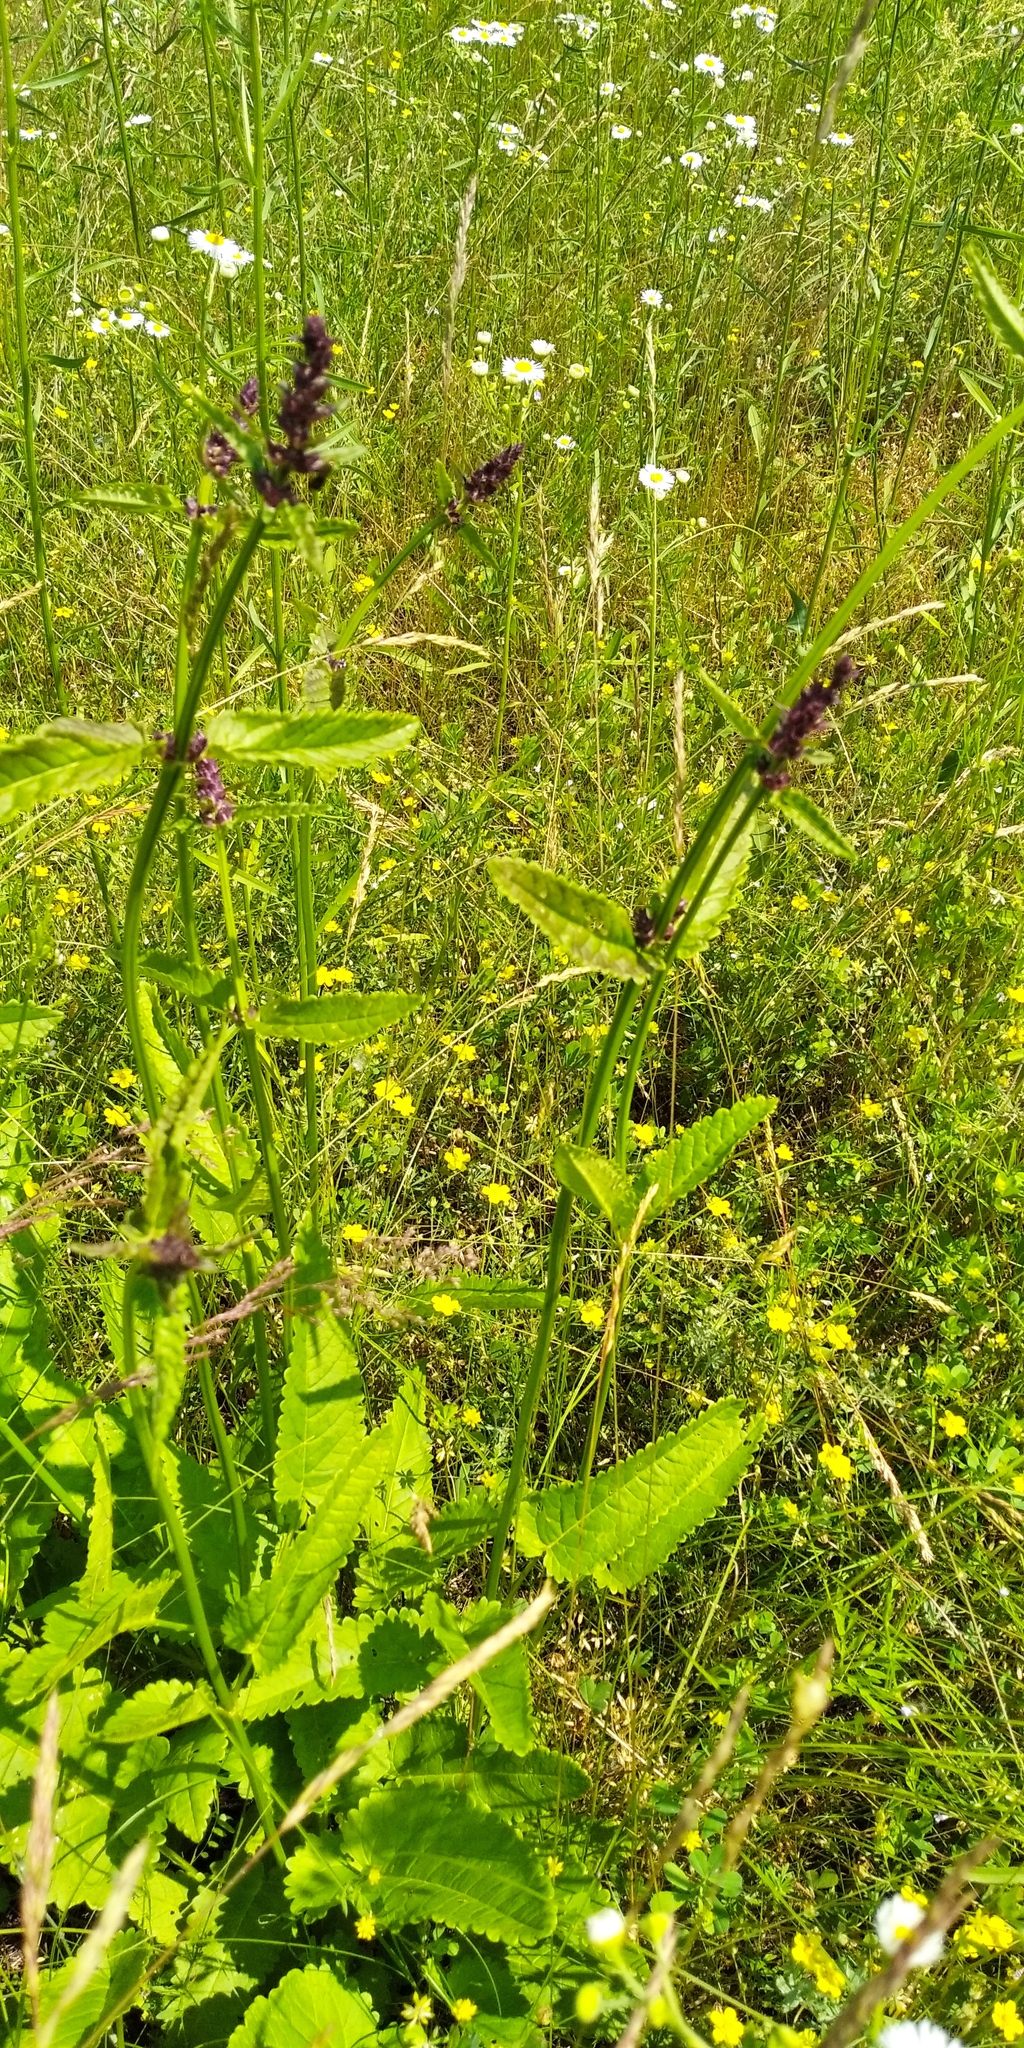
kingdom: Plantae
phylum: Tracheophyta
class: Magnoliopsida
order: Lamiales
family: Lamiaceae
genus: Betonica
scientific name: Betonica officinalis
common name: Bishop's-wort
